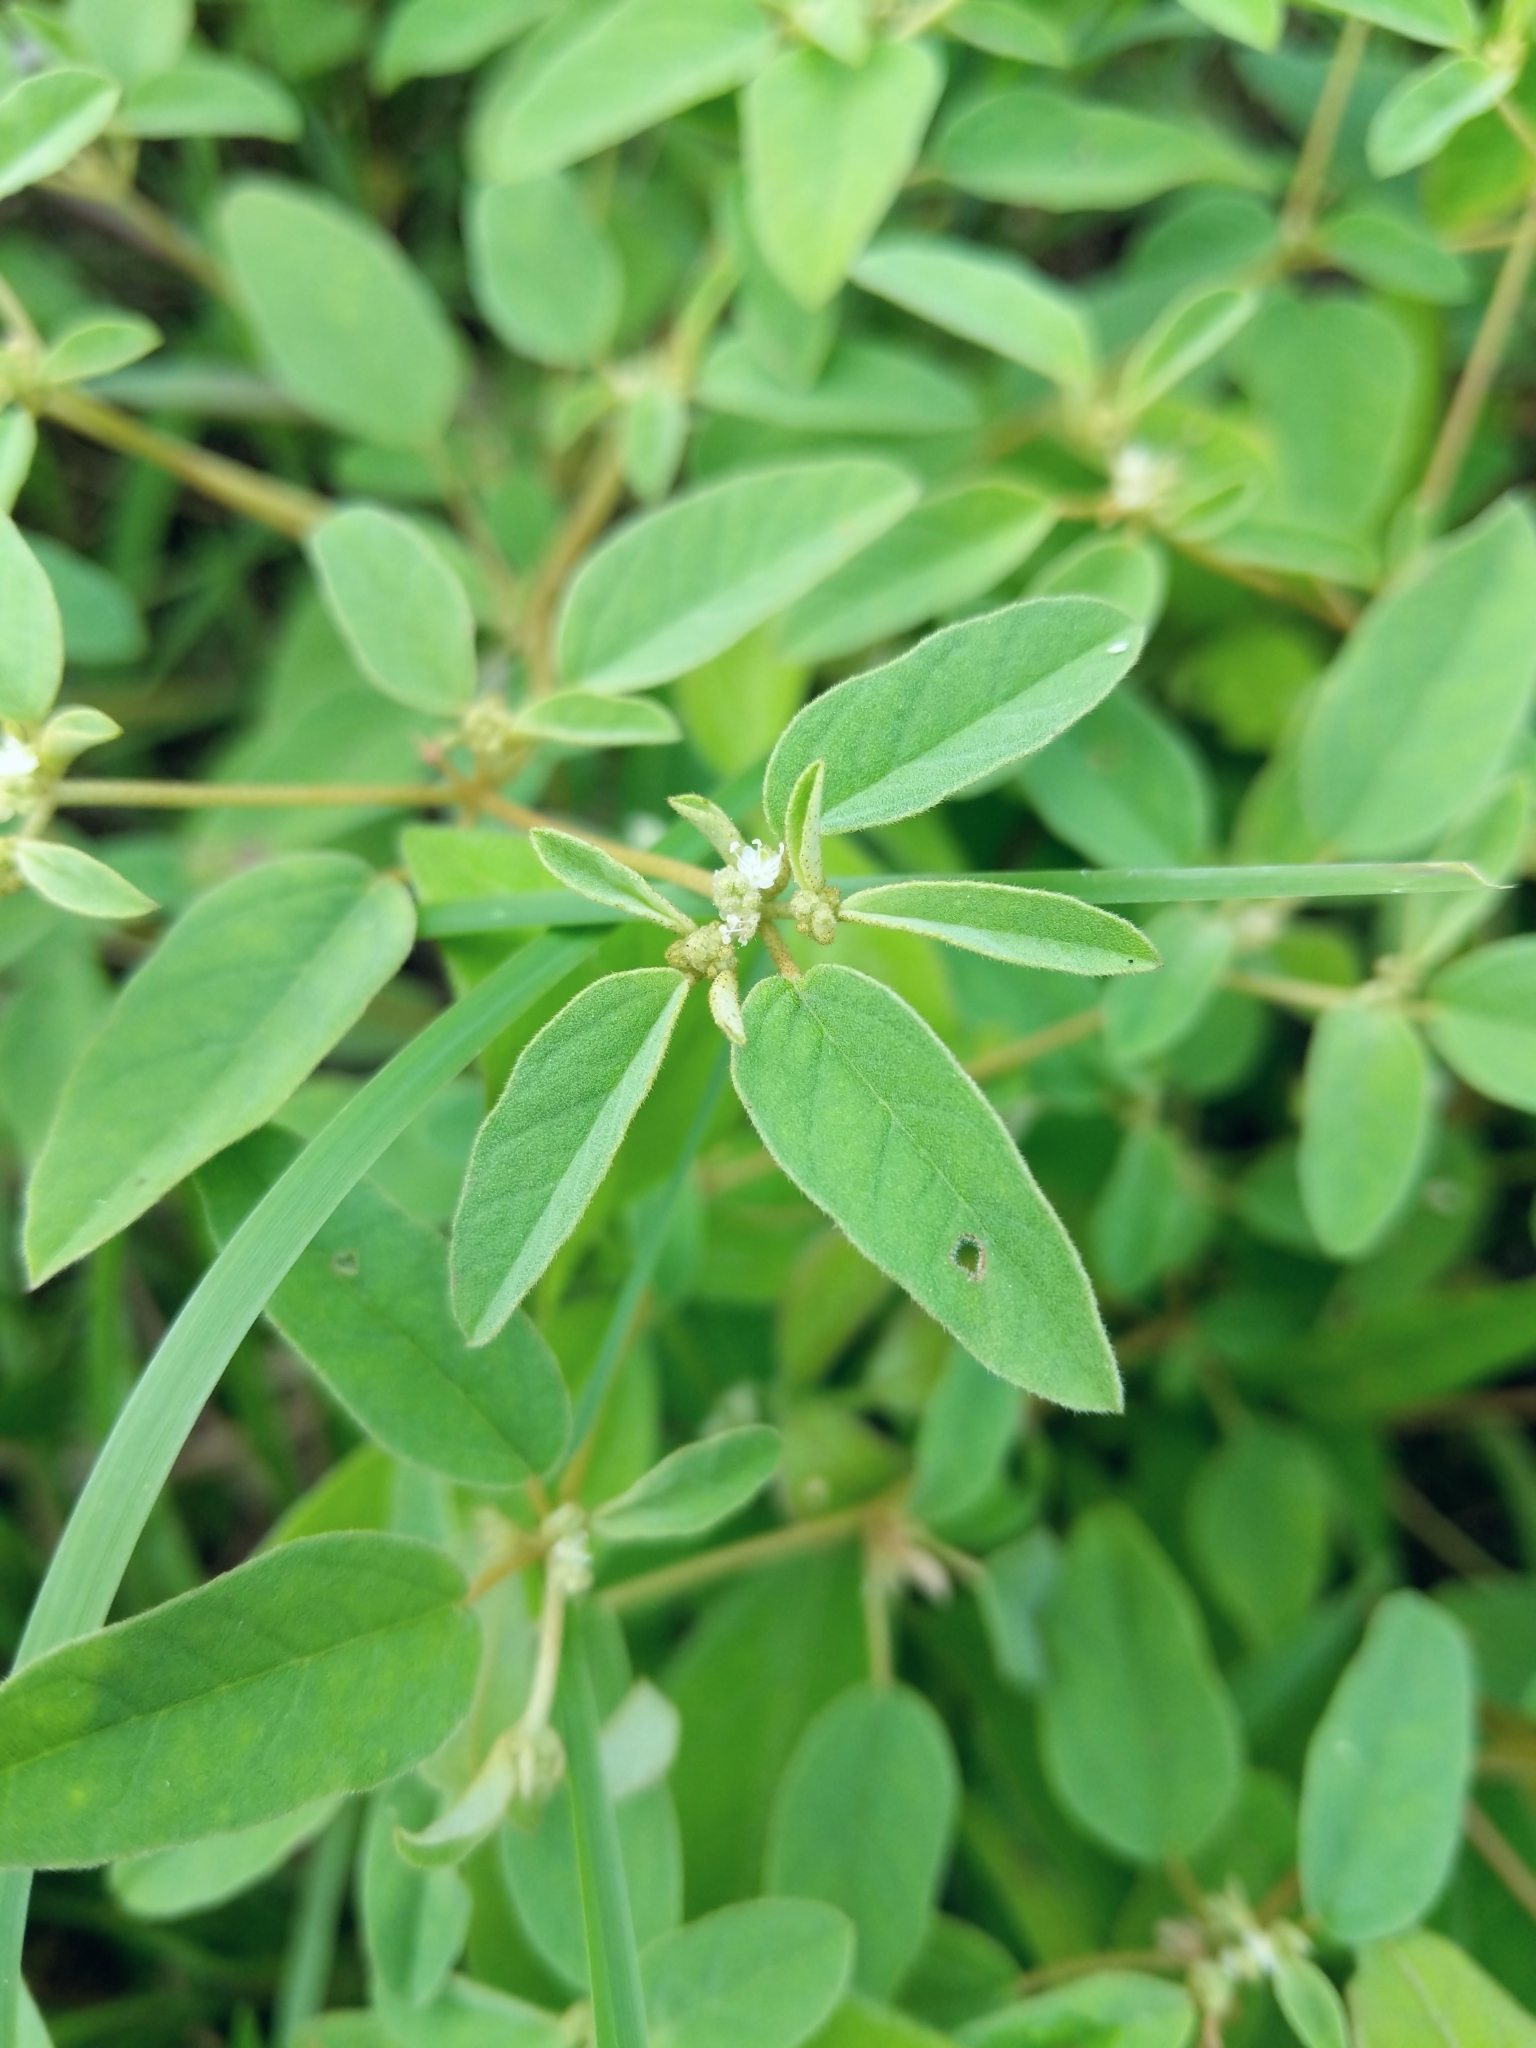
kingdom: Plantae
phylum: Tracheophyta
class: Magnoliopsida
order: Malpighiales
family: Euphorbiaceae
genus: Croton
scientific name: Croton monanthogynus
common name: One-seed croton
